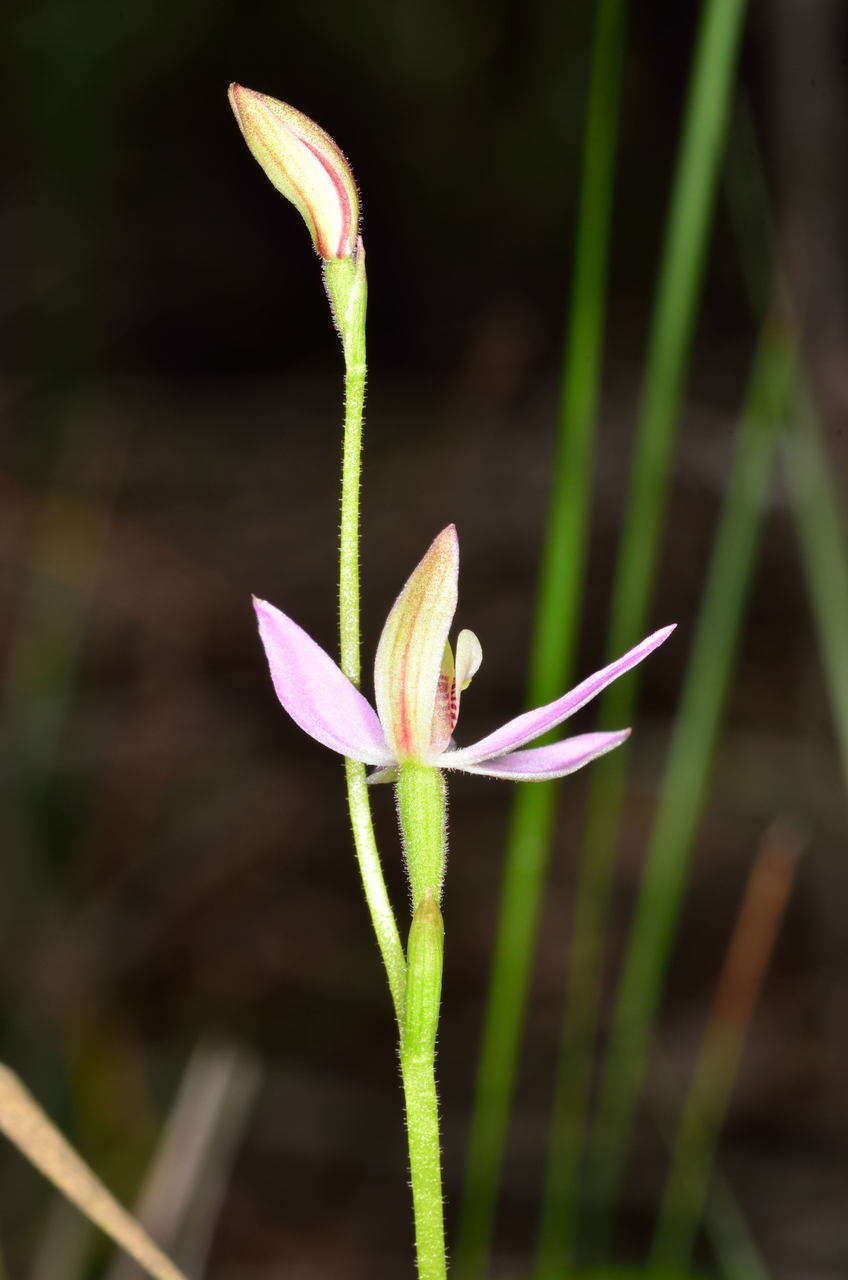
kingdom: Plantae
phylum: Tracheophyta
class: Liliopsida
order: Asparagales
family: Orchidaceae
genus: Caladenia
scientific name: Caladenia carnea
